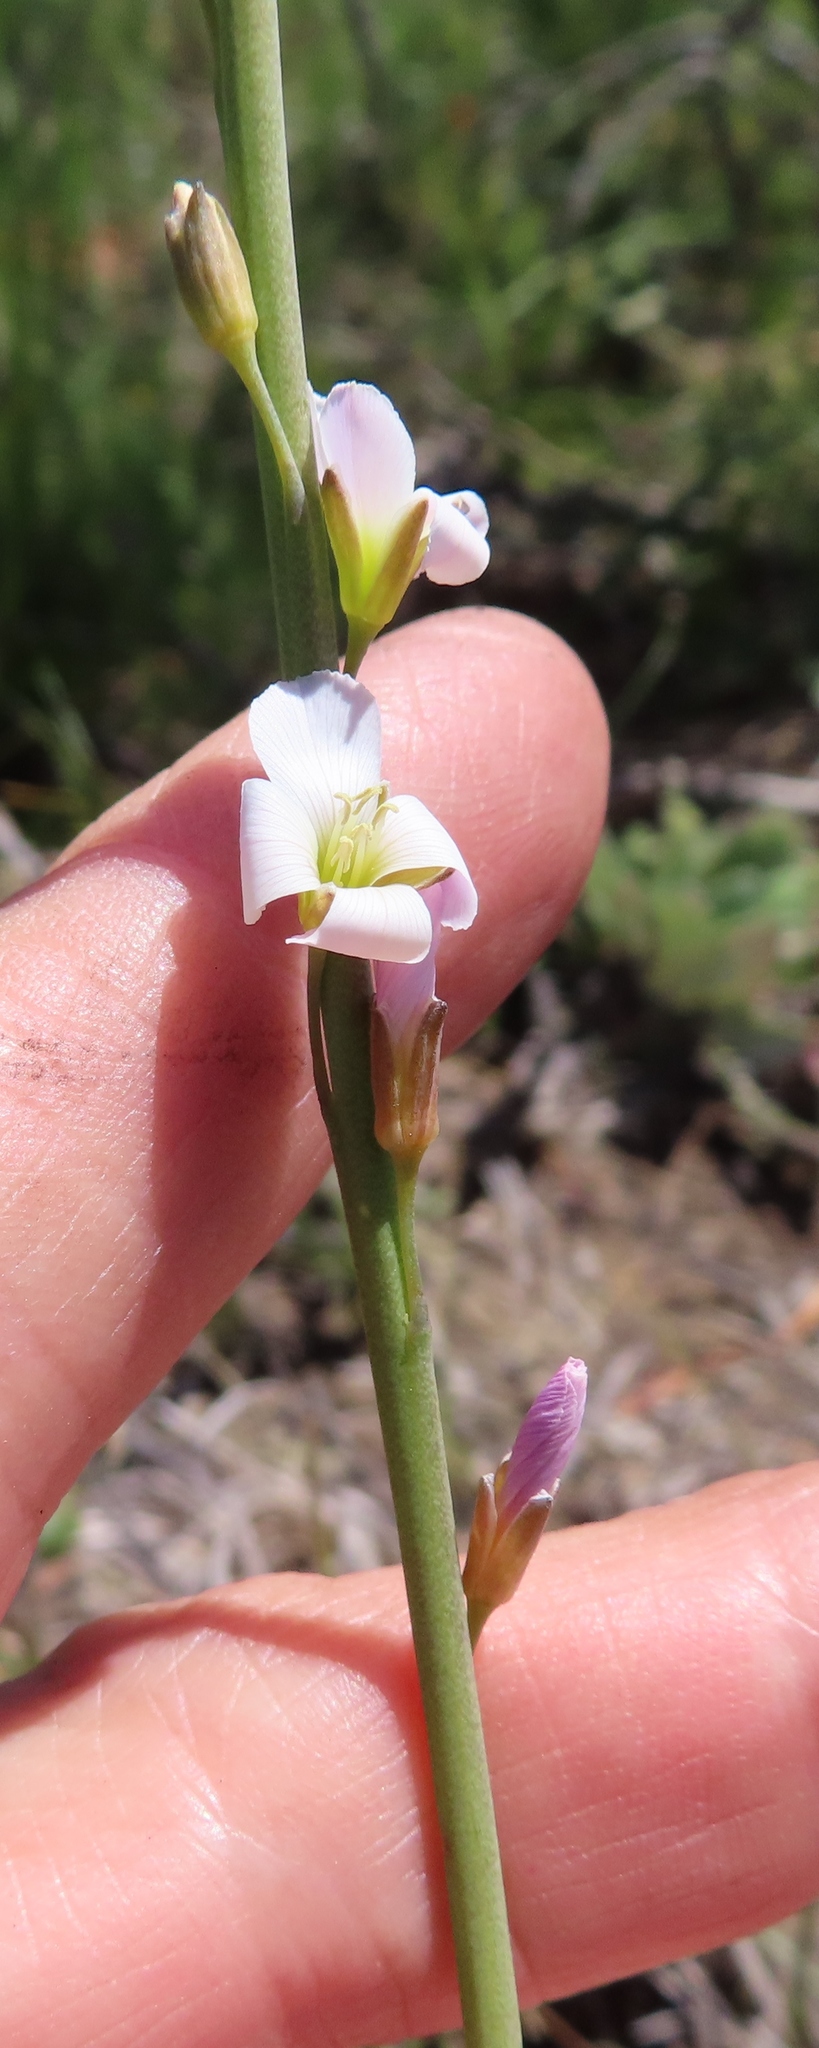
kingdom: Plantae
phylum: Tracheophyta
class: Magnoliopsida
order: Brassicales
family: Brassicaceae
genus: Heliophila
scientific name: Heliophila macra
